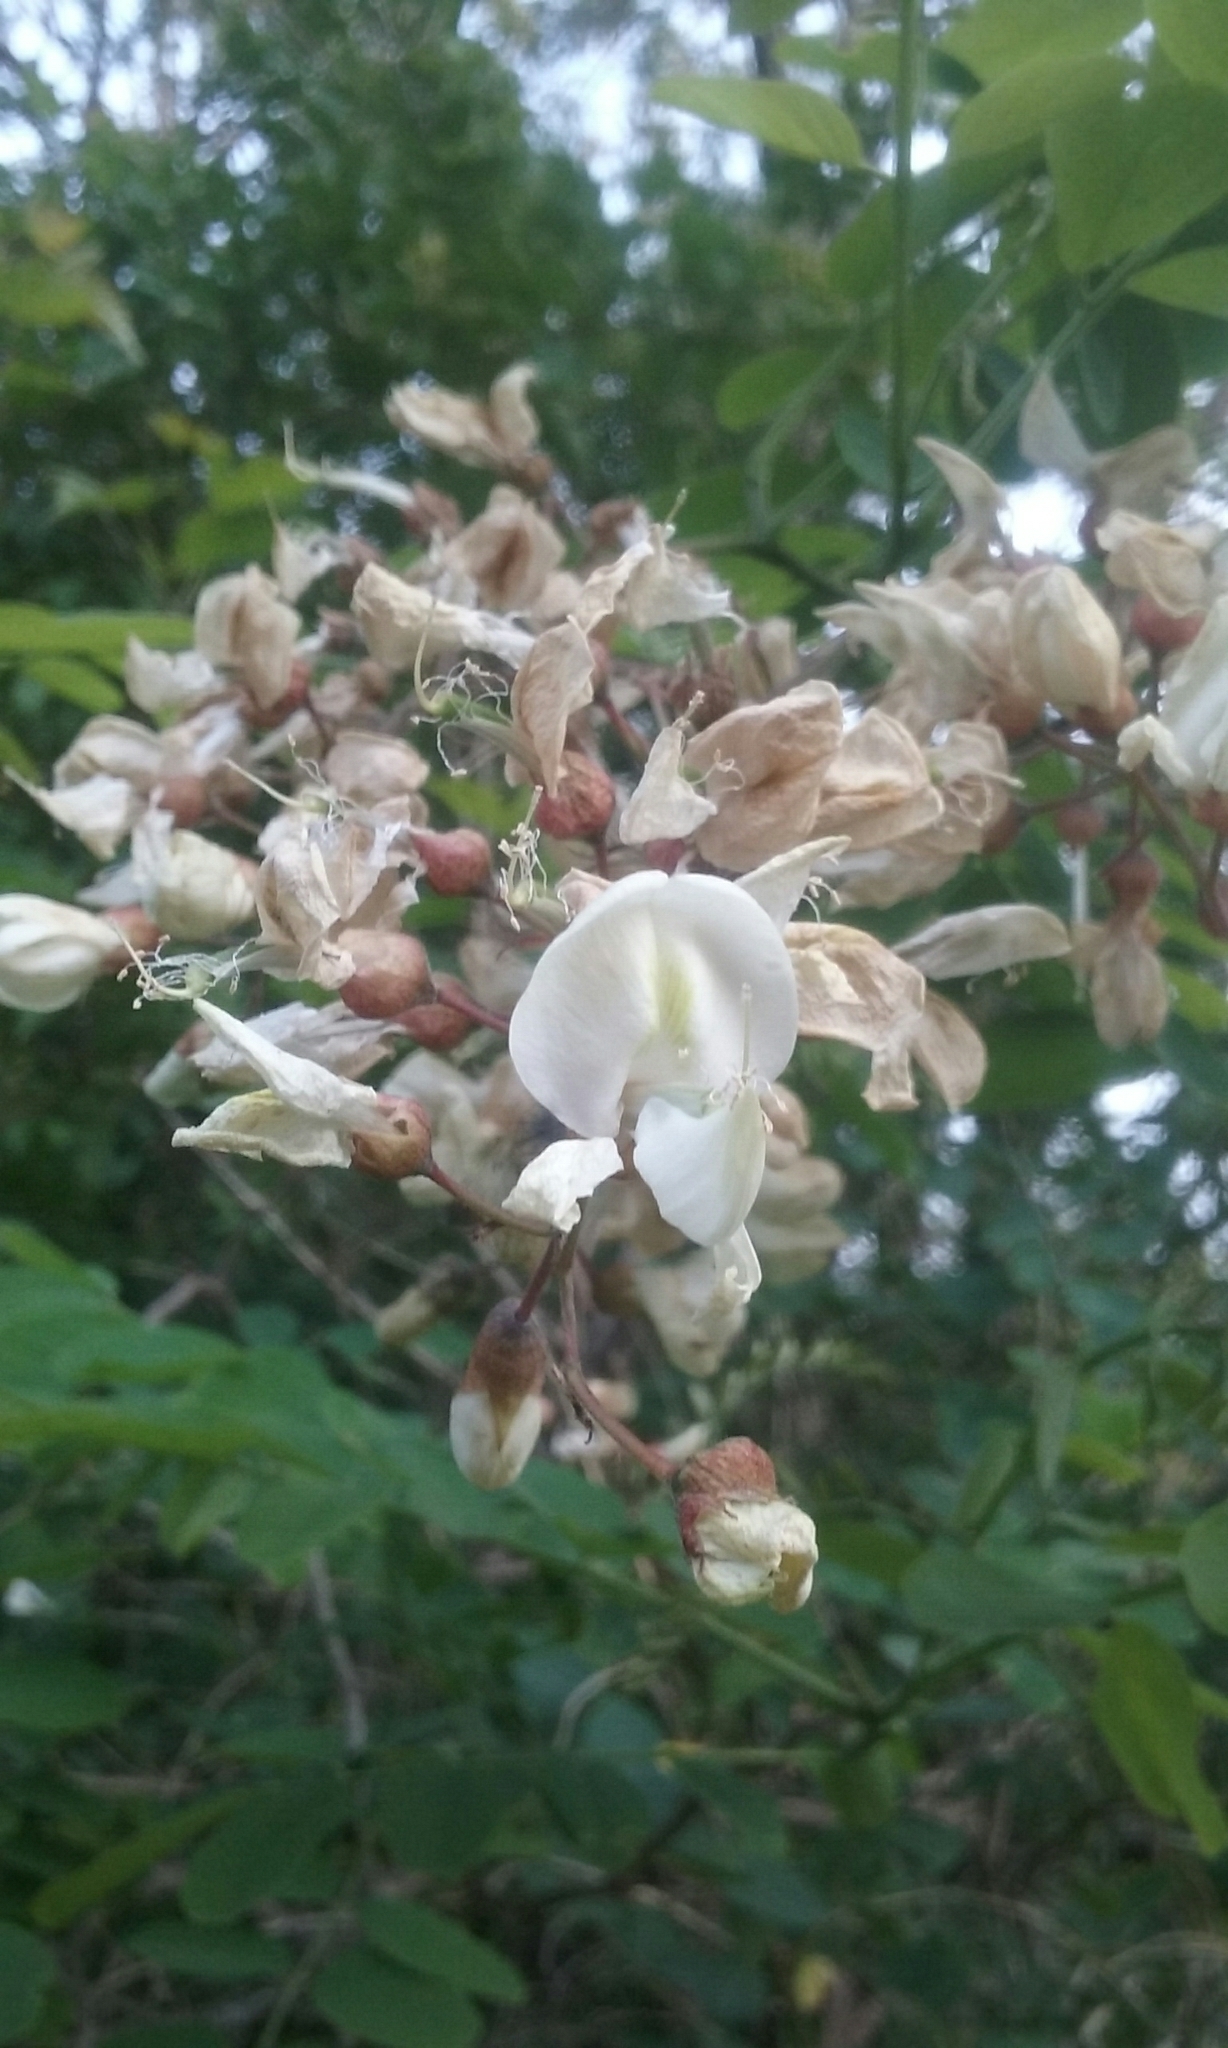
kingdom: Plantae
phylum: Tracheophyta
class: Magnoliopsida
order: Fabales
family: Fabaceae
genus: Robinia
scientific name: Robinia pseudoacacia
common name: Black locust
